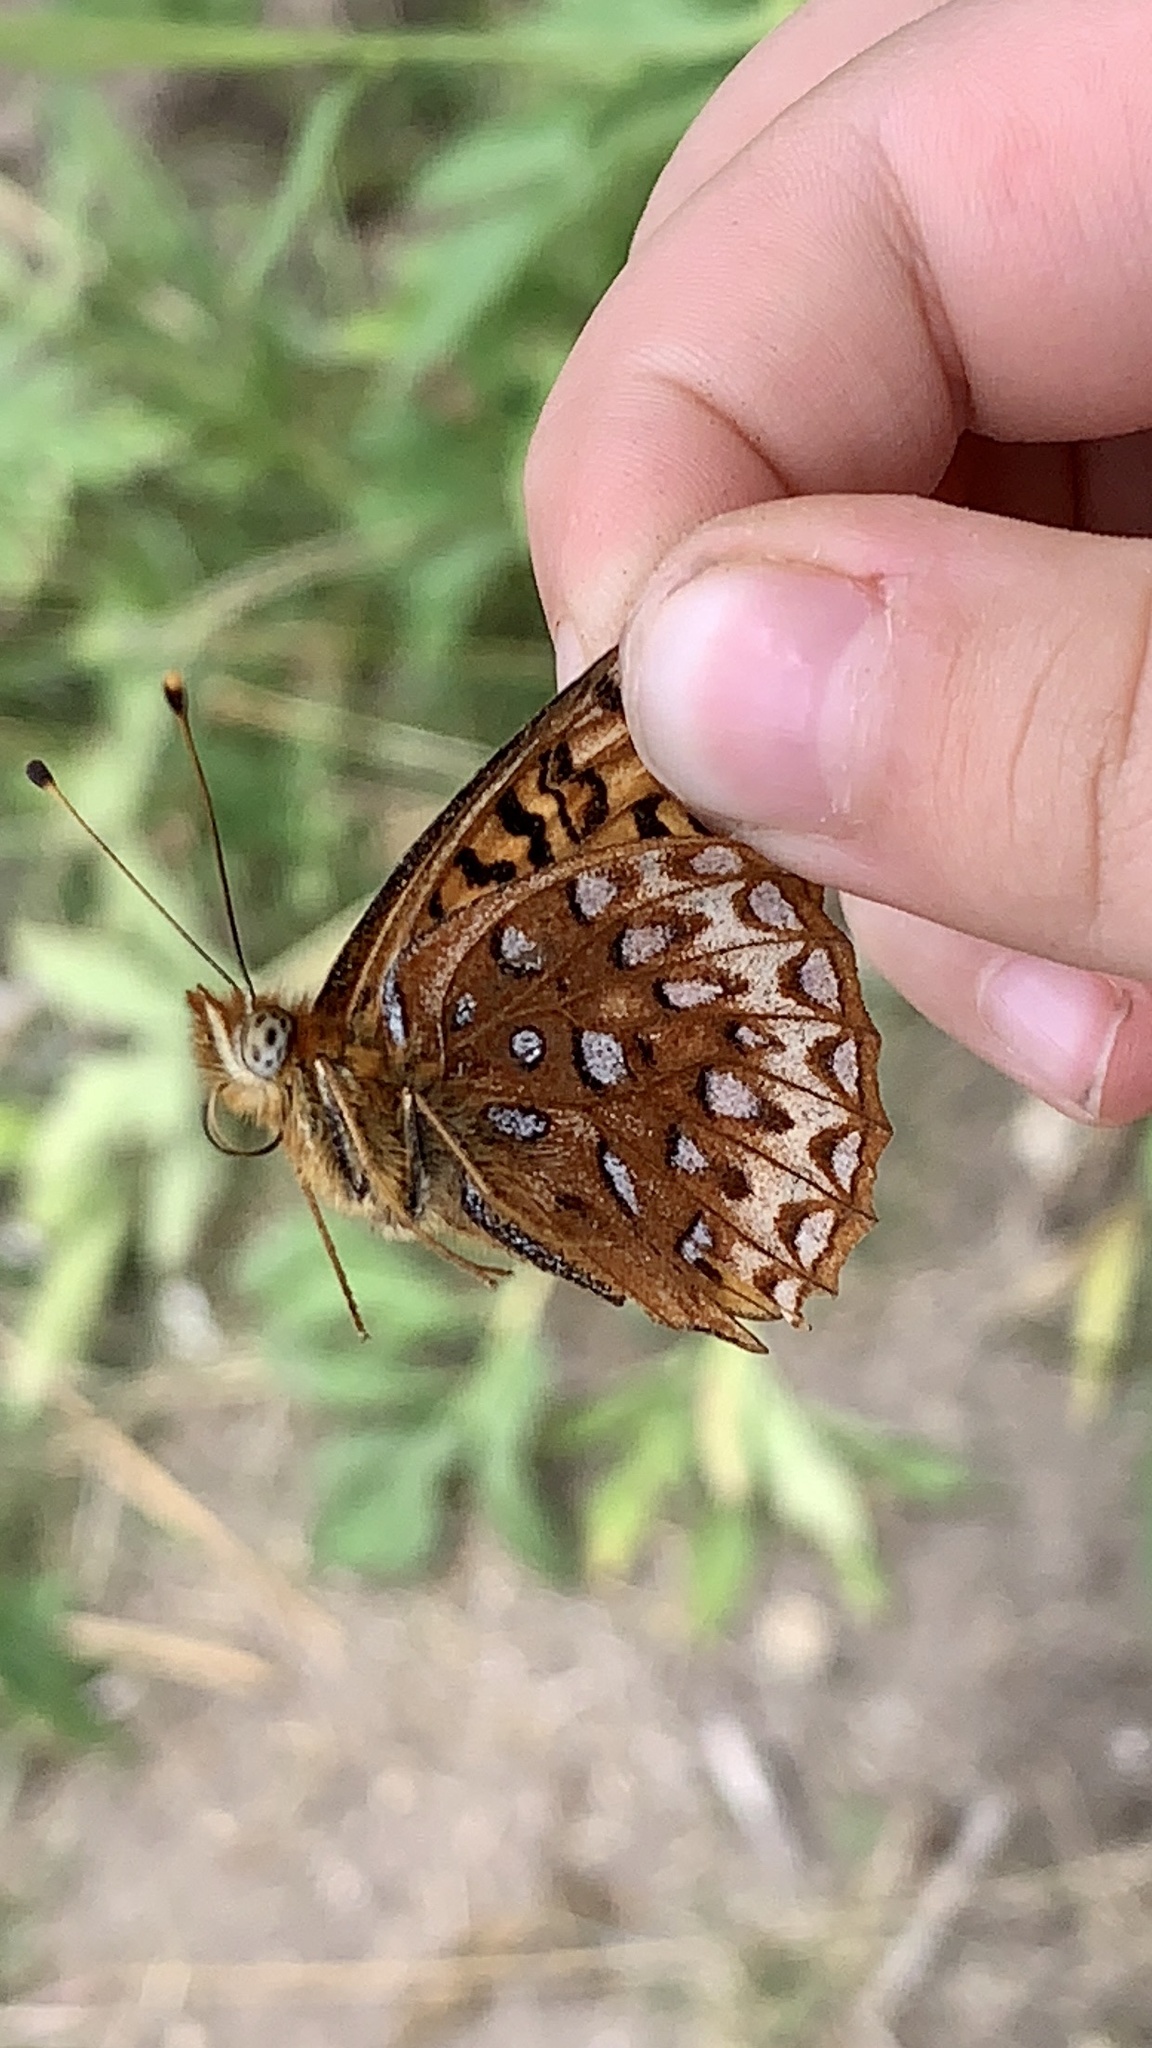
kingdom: Animalia
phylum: Arthropoda
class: Insecta
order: Lepidoptera
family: Nymphalidae
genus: Speyeria
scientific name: Speyeria atlantis
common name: Atlantis fritillary
